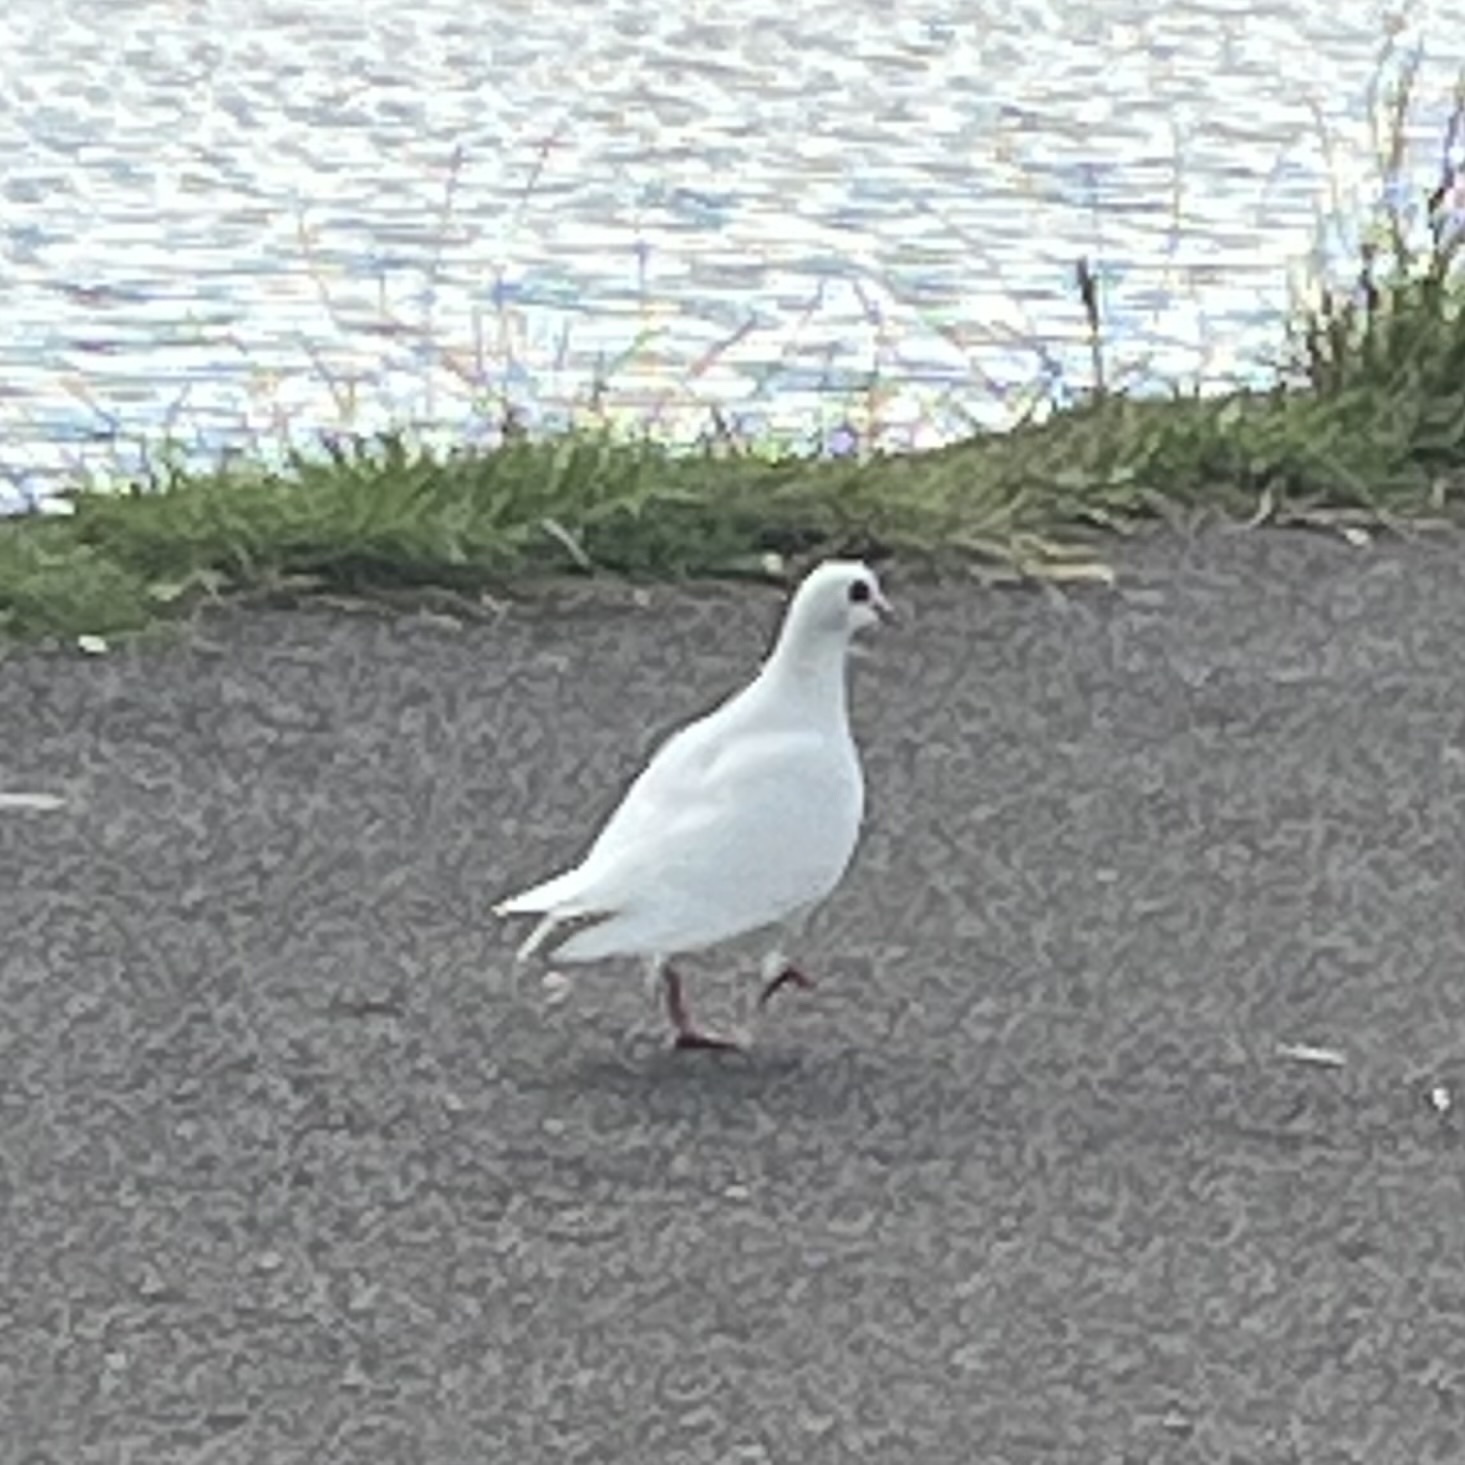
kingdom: Animalia
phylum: Chordata
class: Aves
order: Columbiformes
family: Columbidae
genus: Columba
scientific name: Columba livia
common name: Rock pigeon
